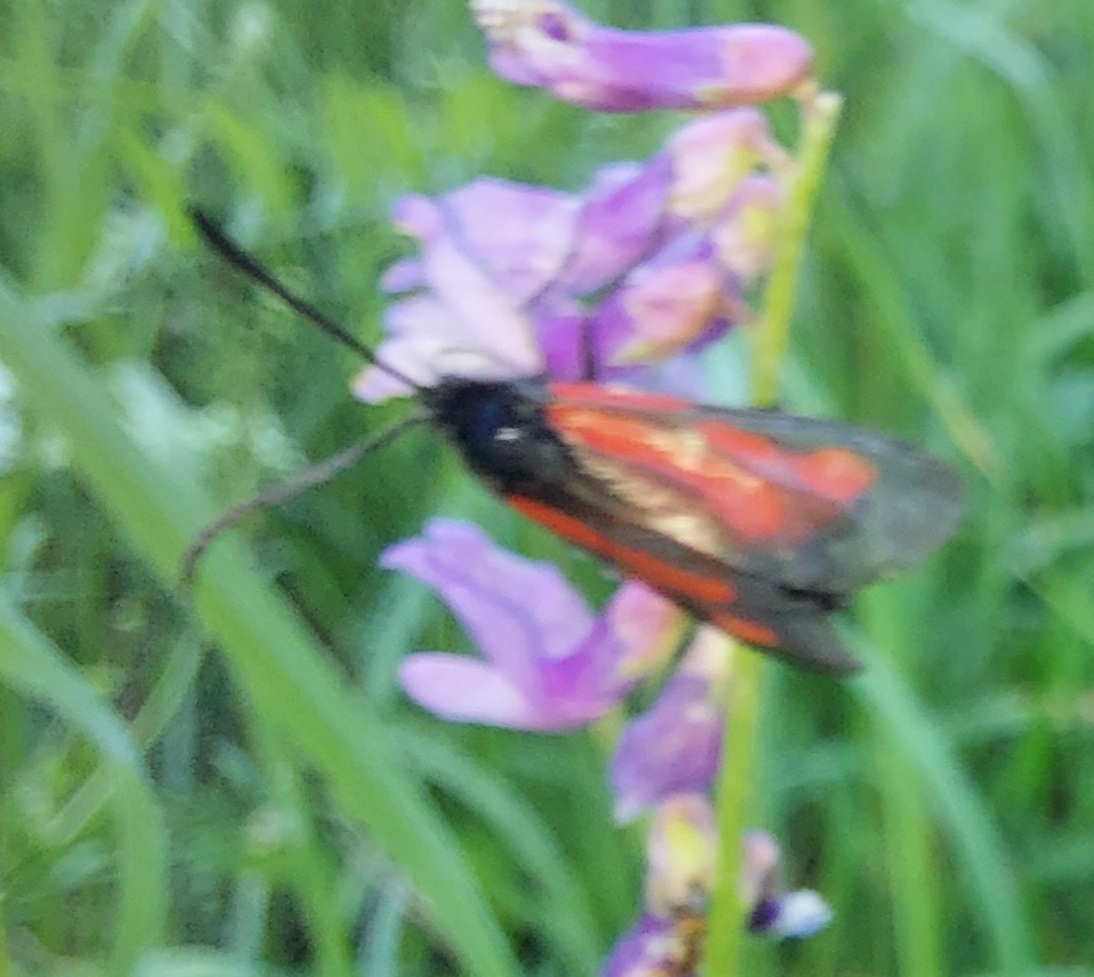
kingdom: Animalia
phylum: Arthropoda
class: Insecta
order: Lepidoptera
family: Zygaenidae
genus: Zygaena
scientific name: Zygaena osterodensis
